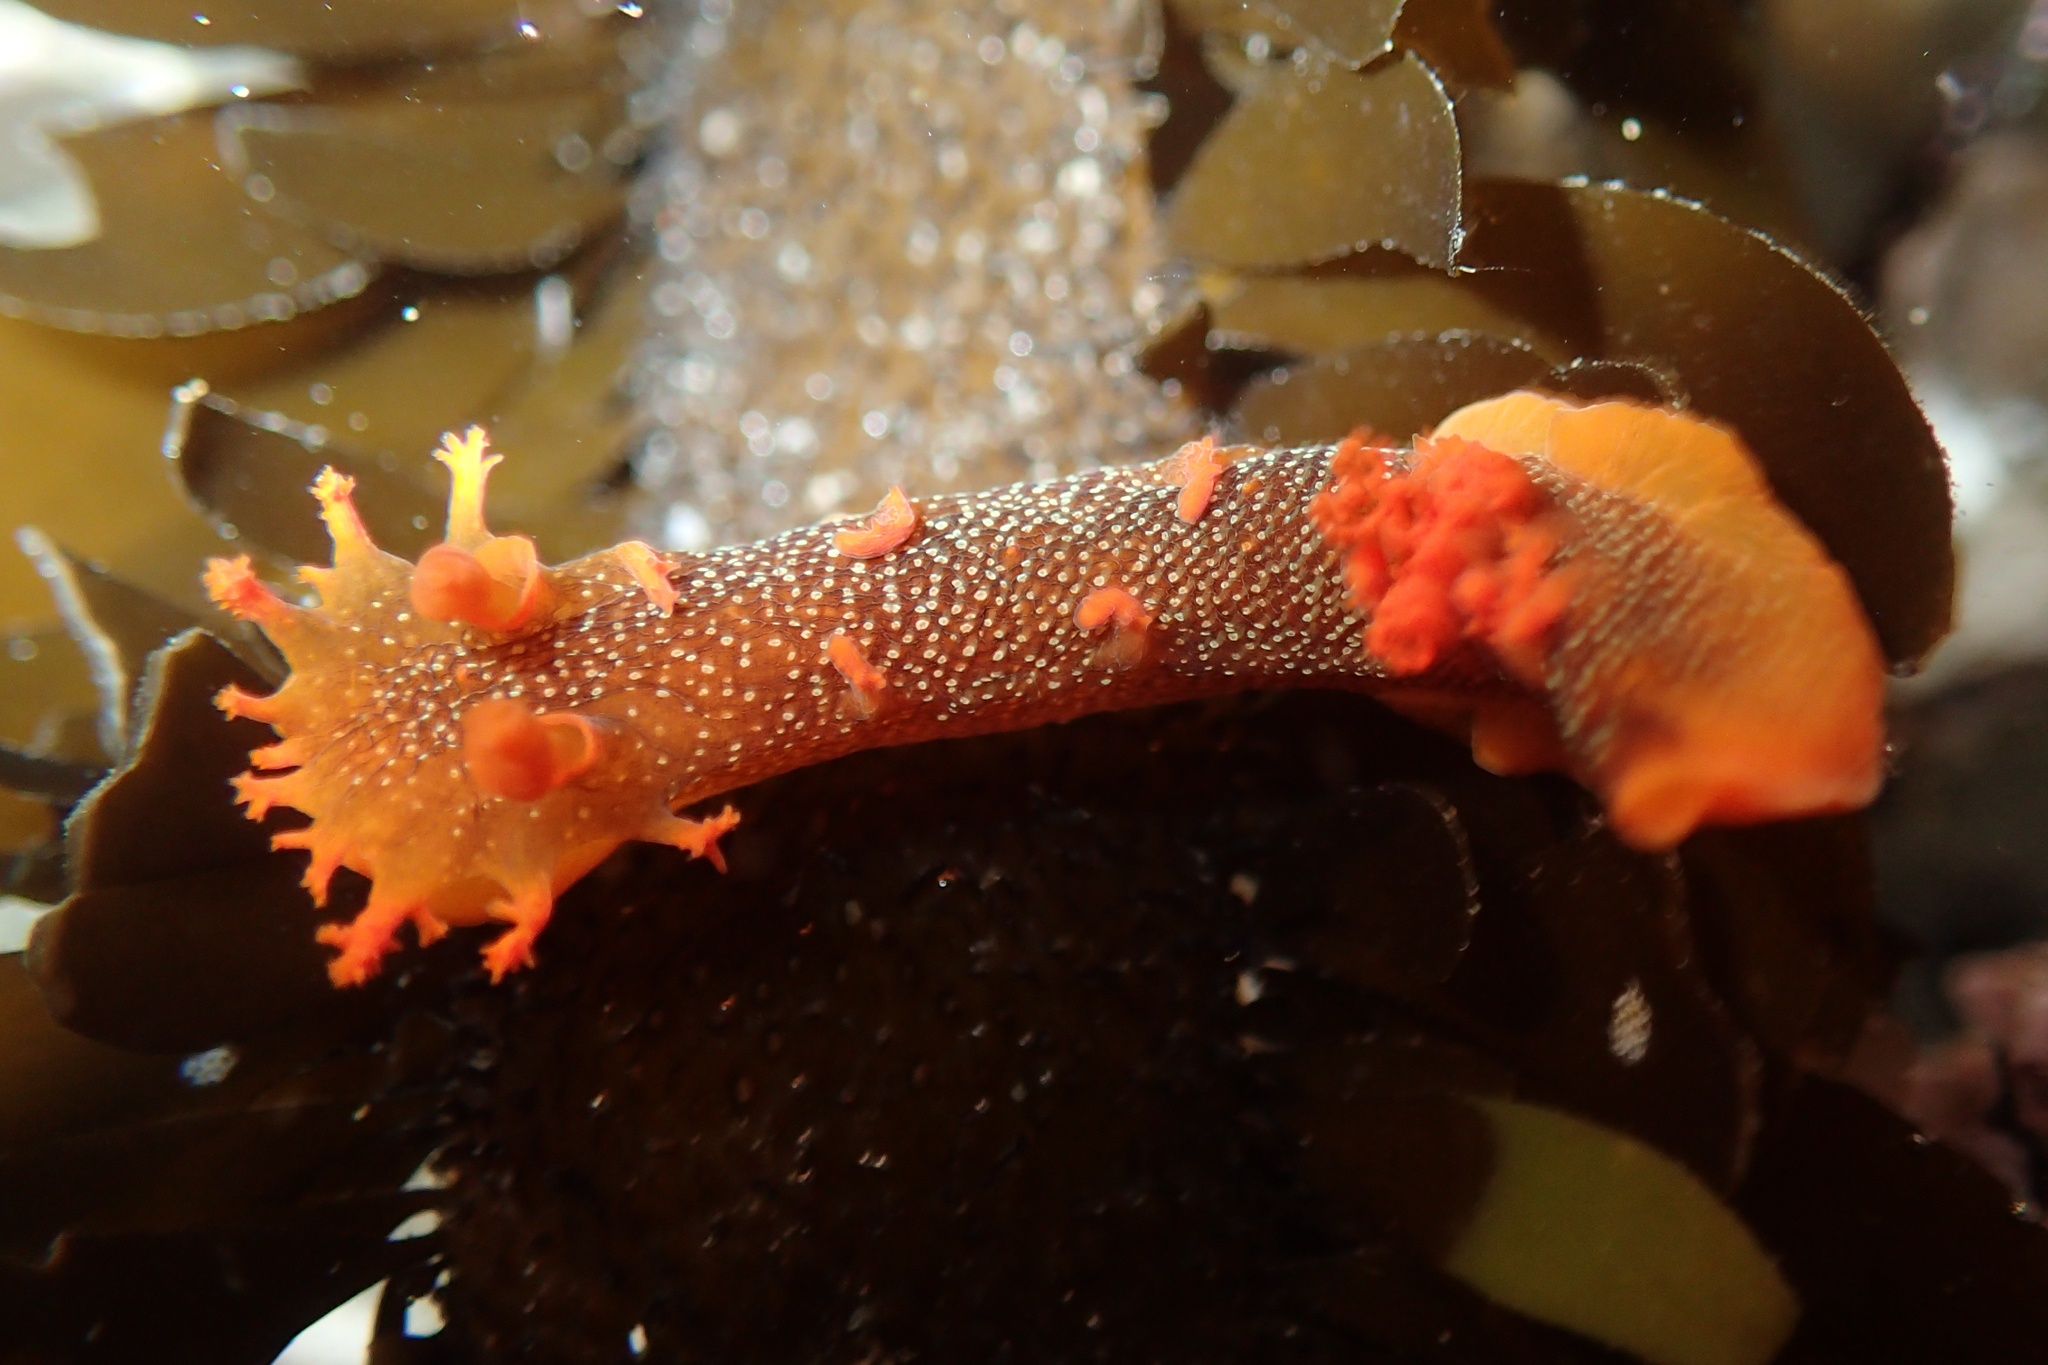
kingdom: Animalia
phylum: Mollusca
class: Gastropoda
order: Nudibranchia
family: Polyceridae
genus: Triopha
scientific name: Triopha maculata
